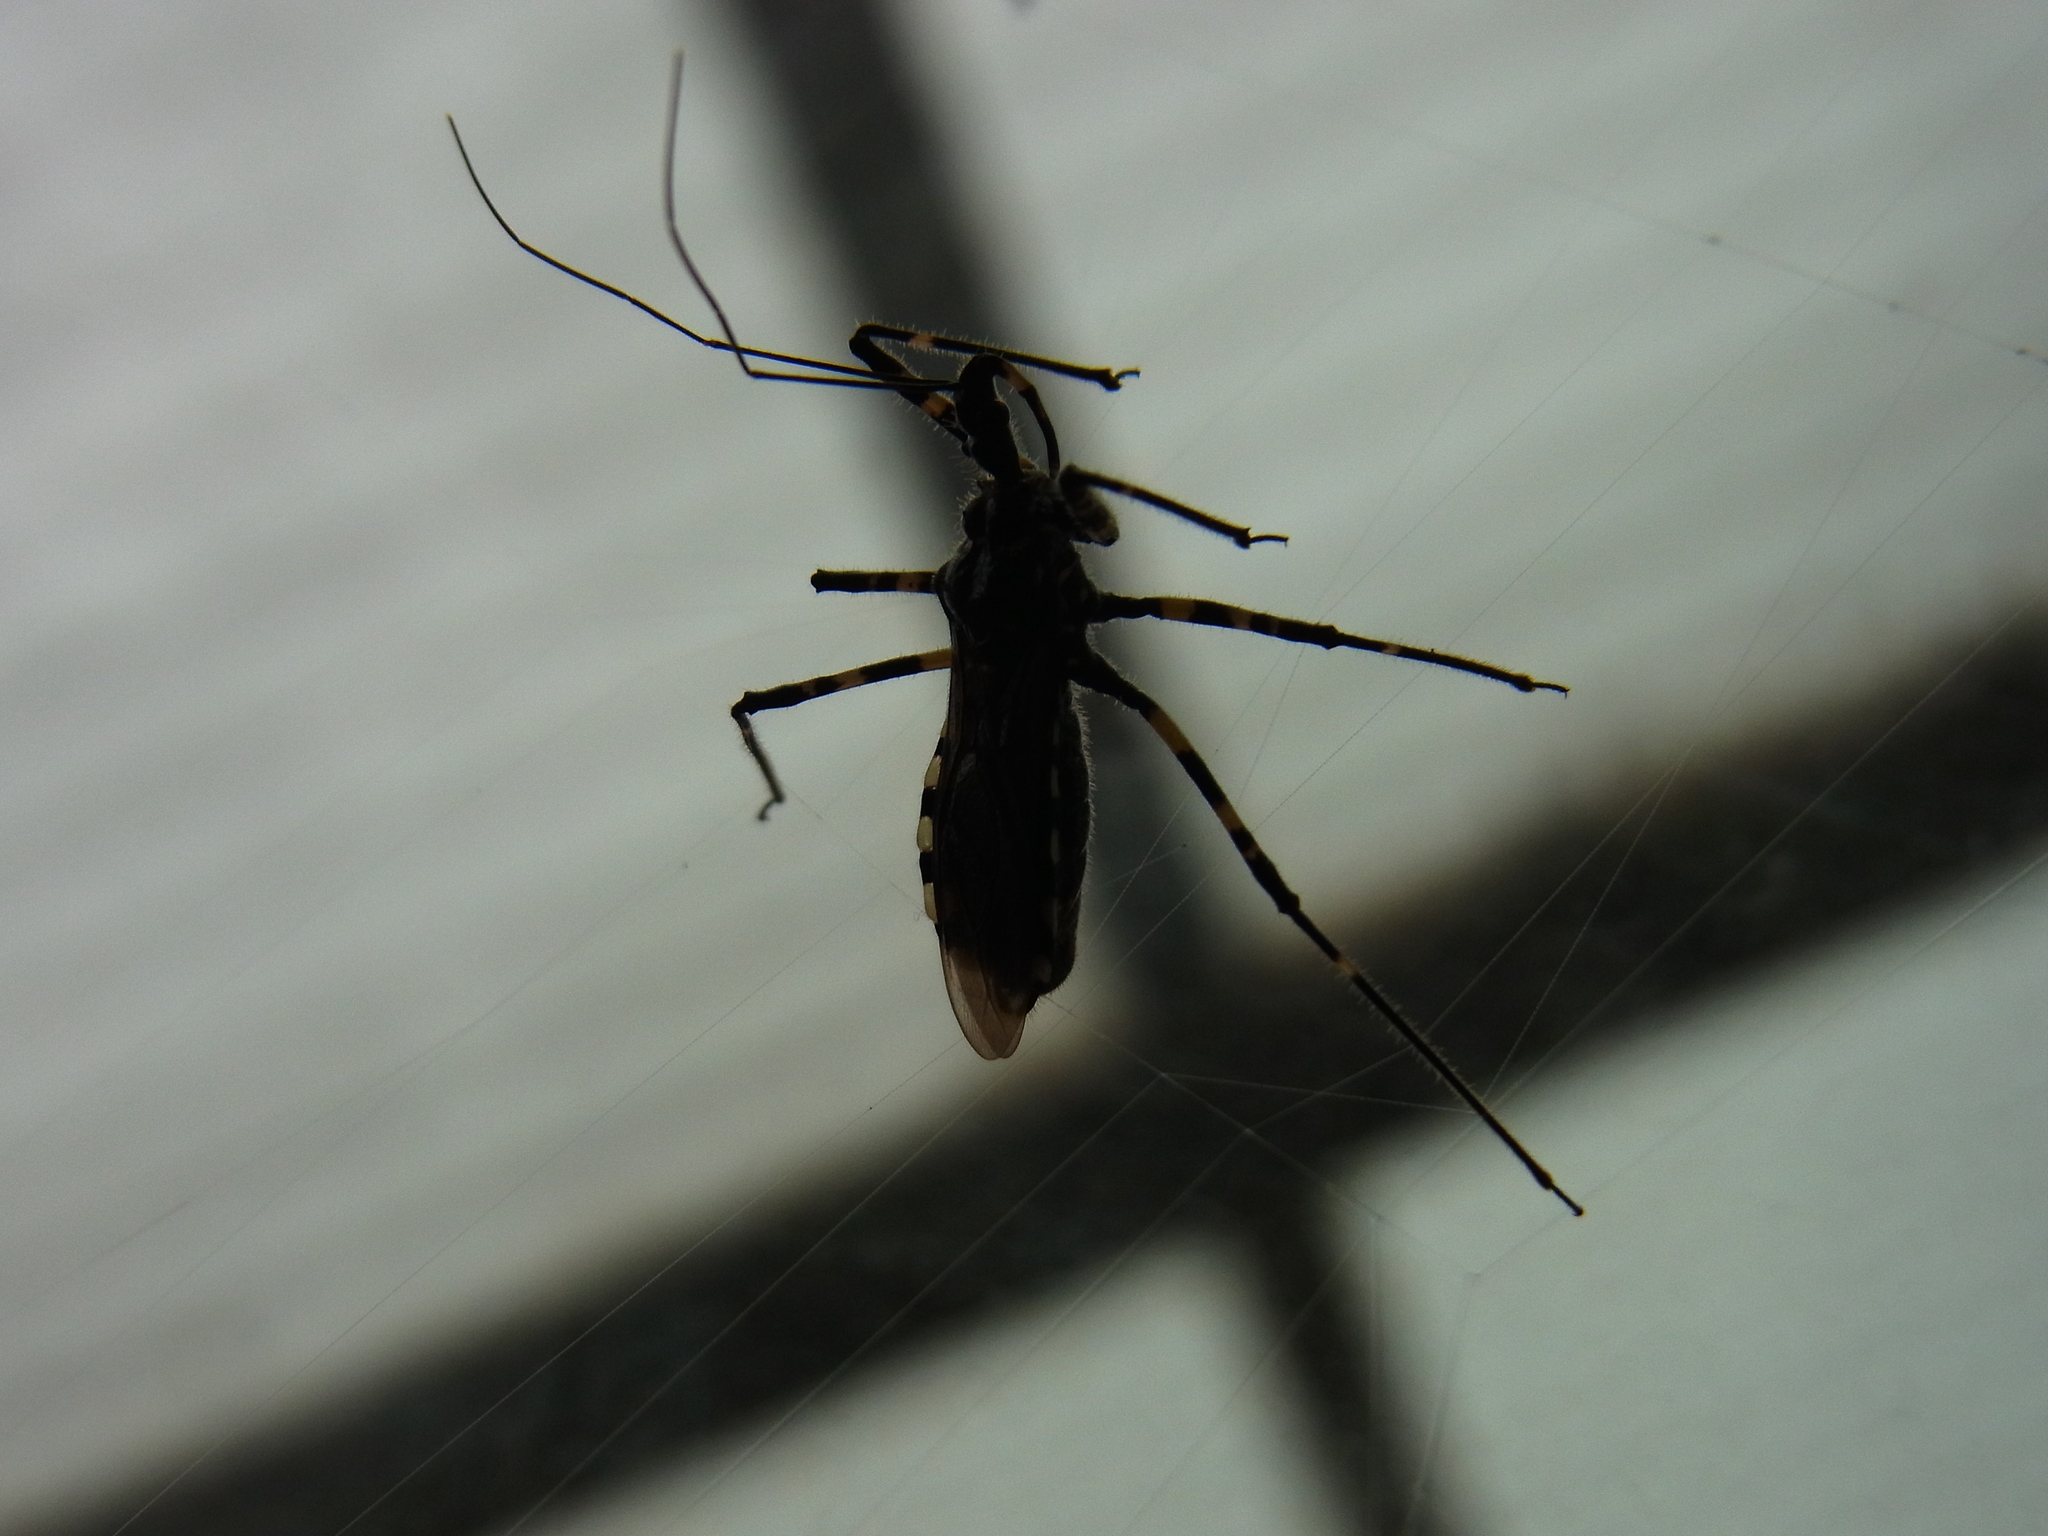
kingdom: Animalia
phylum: Arthropoda
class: Insecta
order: Hemiptera
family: Reduviidae
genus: Sphedanolestes
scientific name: Sphedanolestes impressicollis
